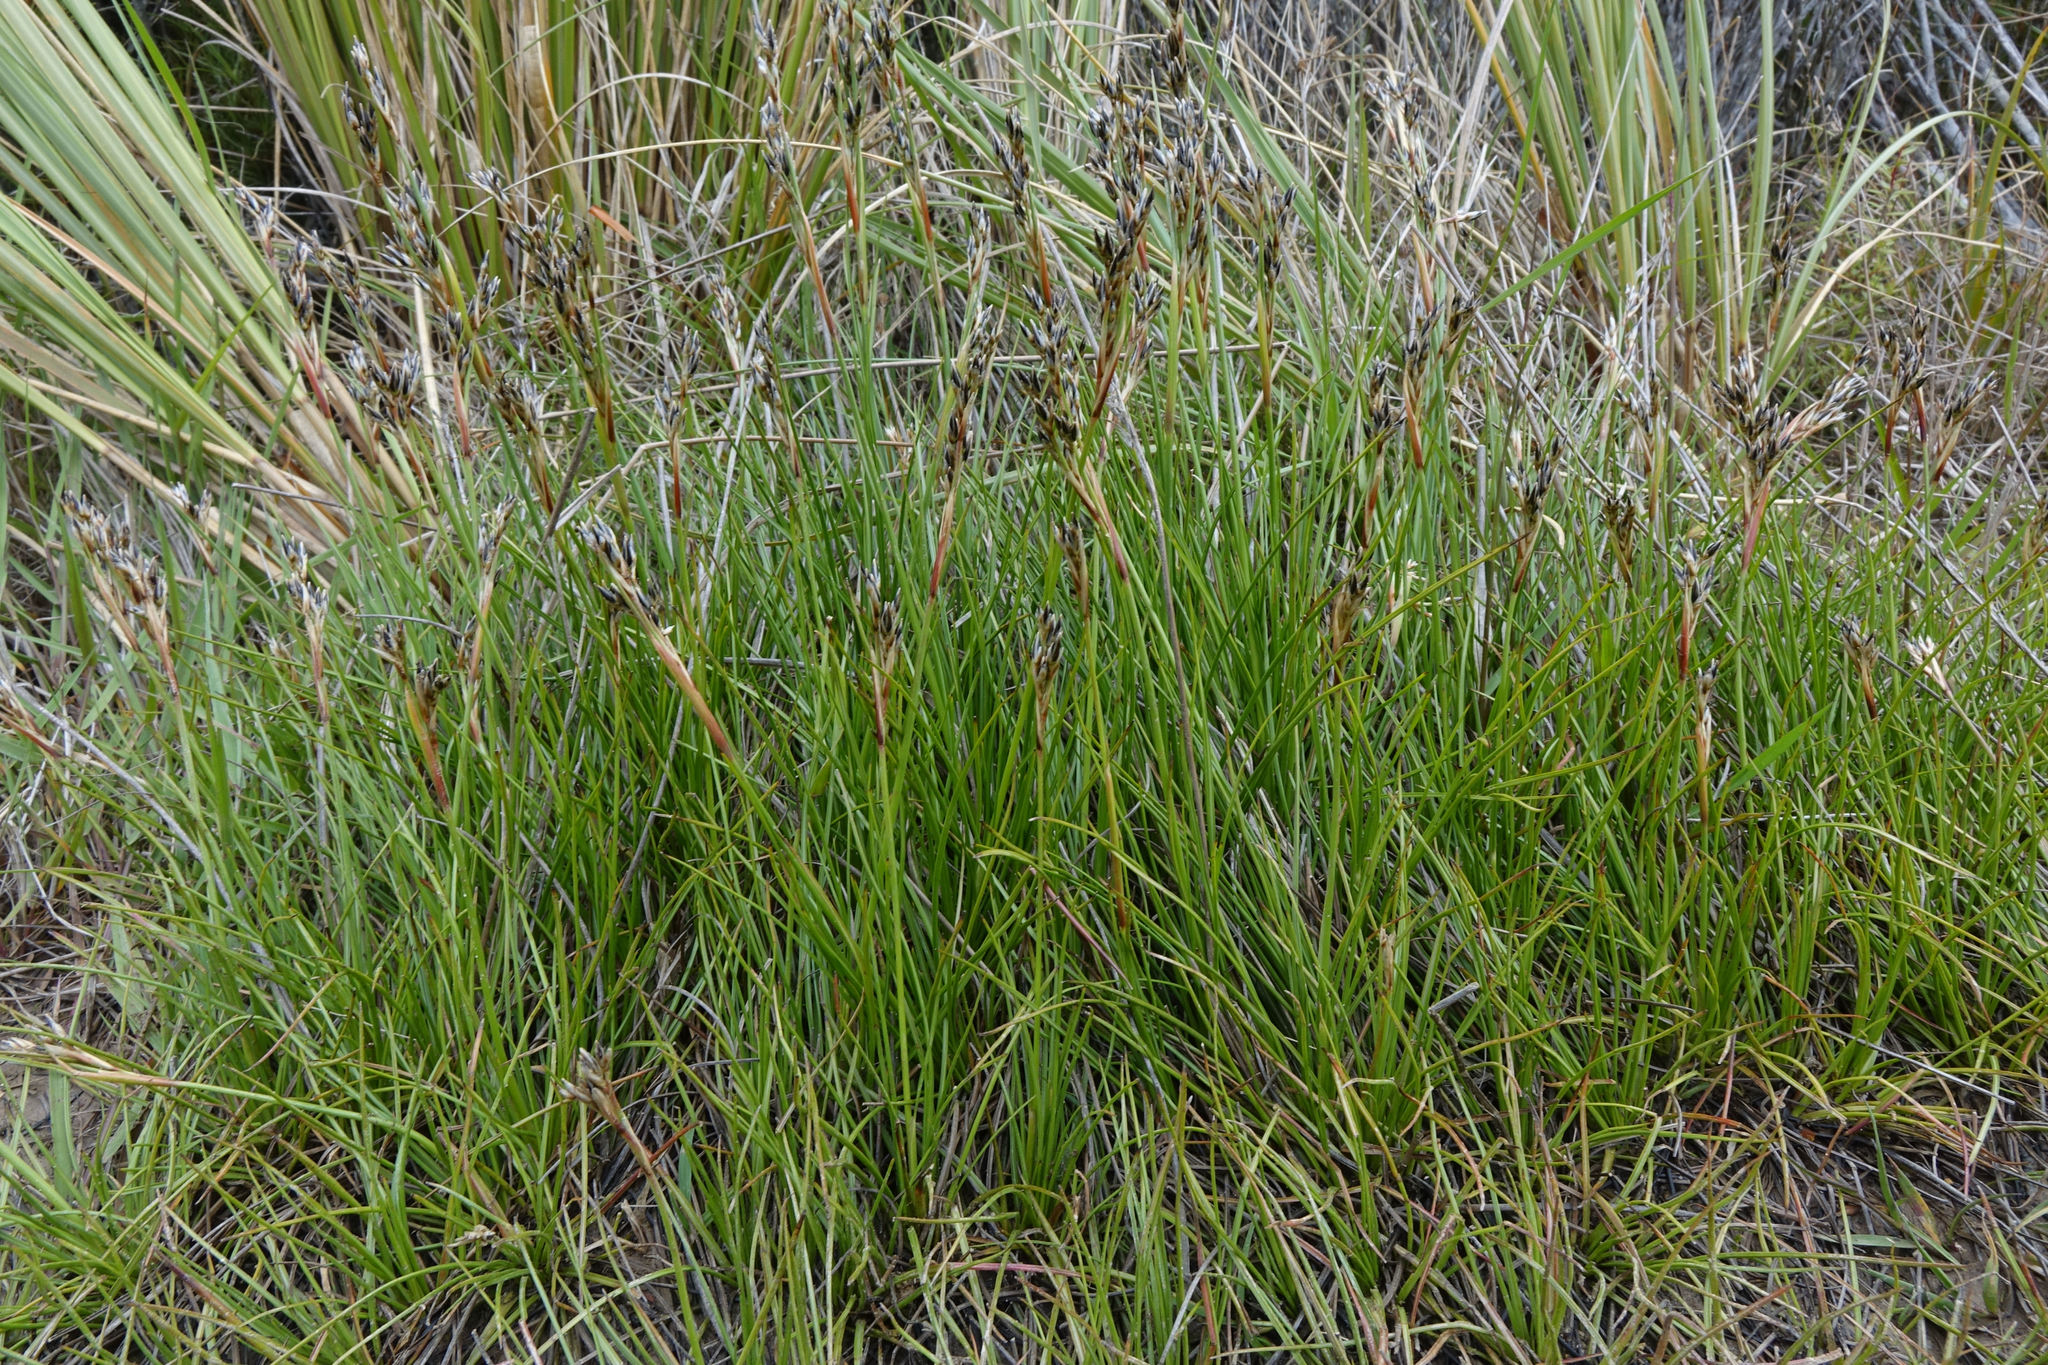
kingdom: Plantae
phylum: Tracheophyta
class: Liliopsida
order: Poales
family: Juncaceae
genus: Juncus
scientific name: Juncus squarrosus
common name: Heath rush
